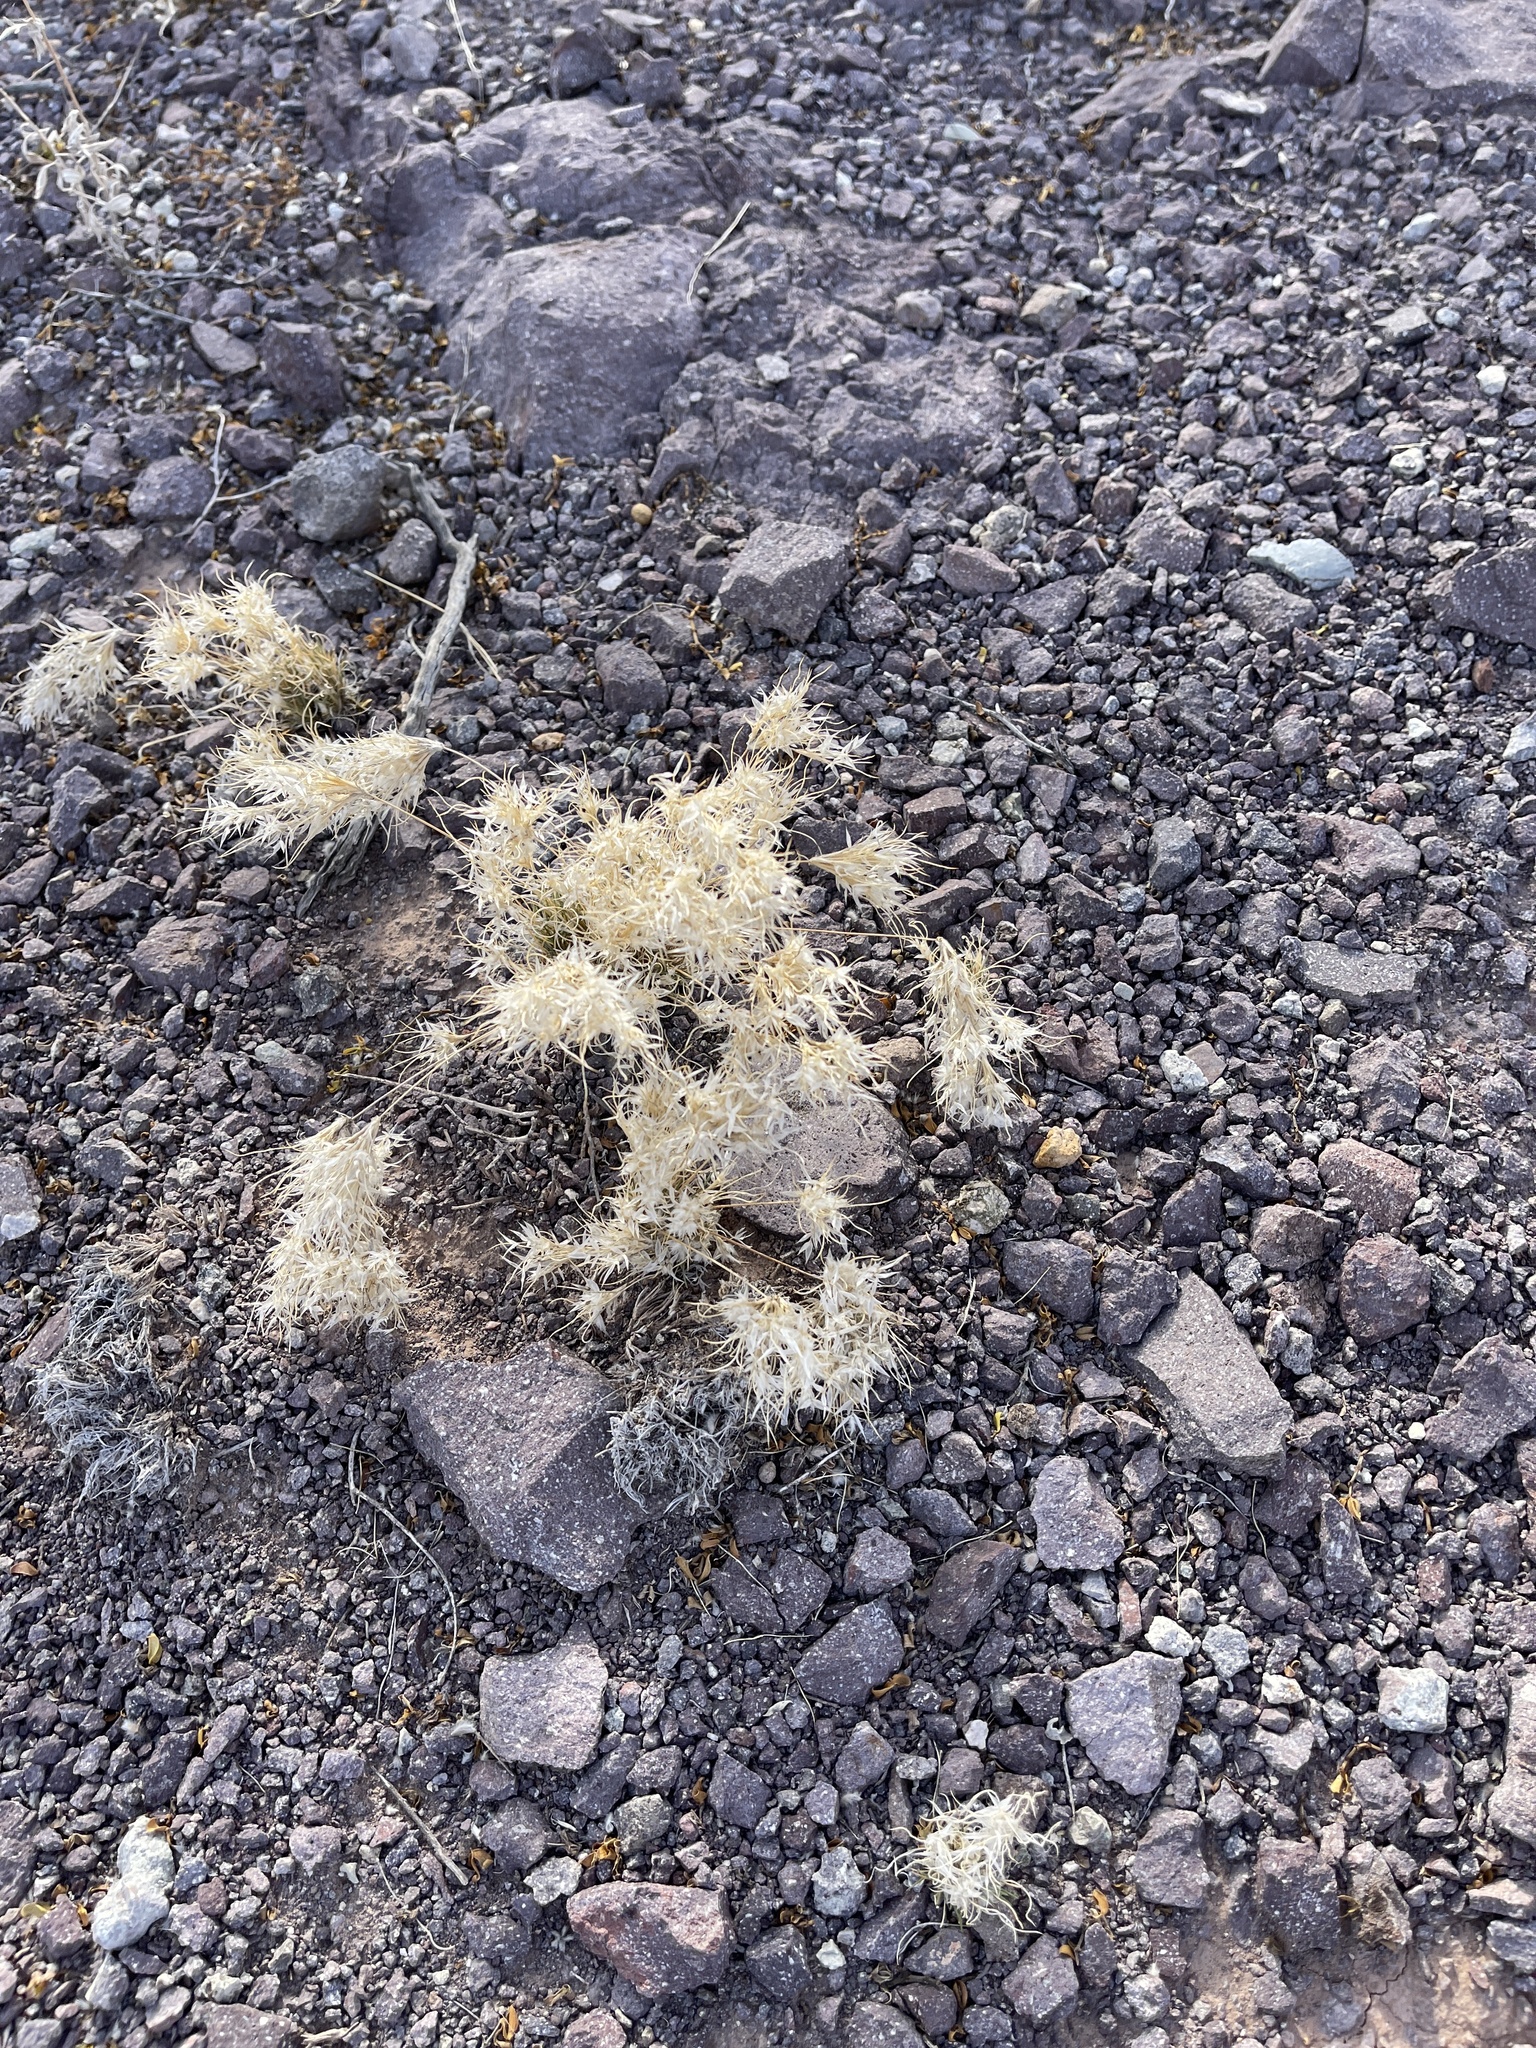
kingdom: Plantae
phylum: Tracheophyta
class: Liliopsida
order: Poales
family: Poaceae
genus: Dasyochloa
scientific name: Dasyochloa pulchella
